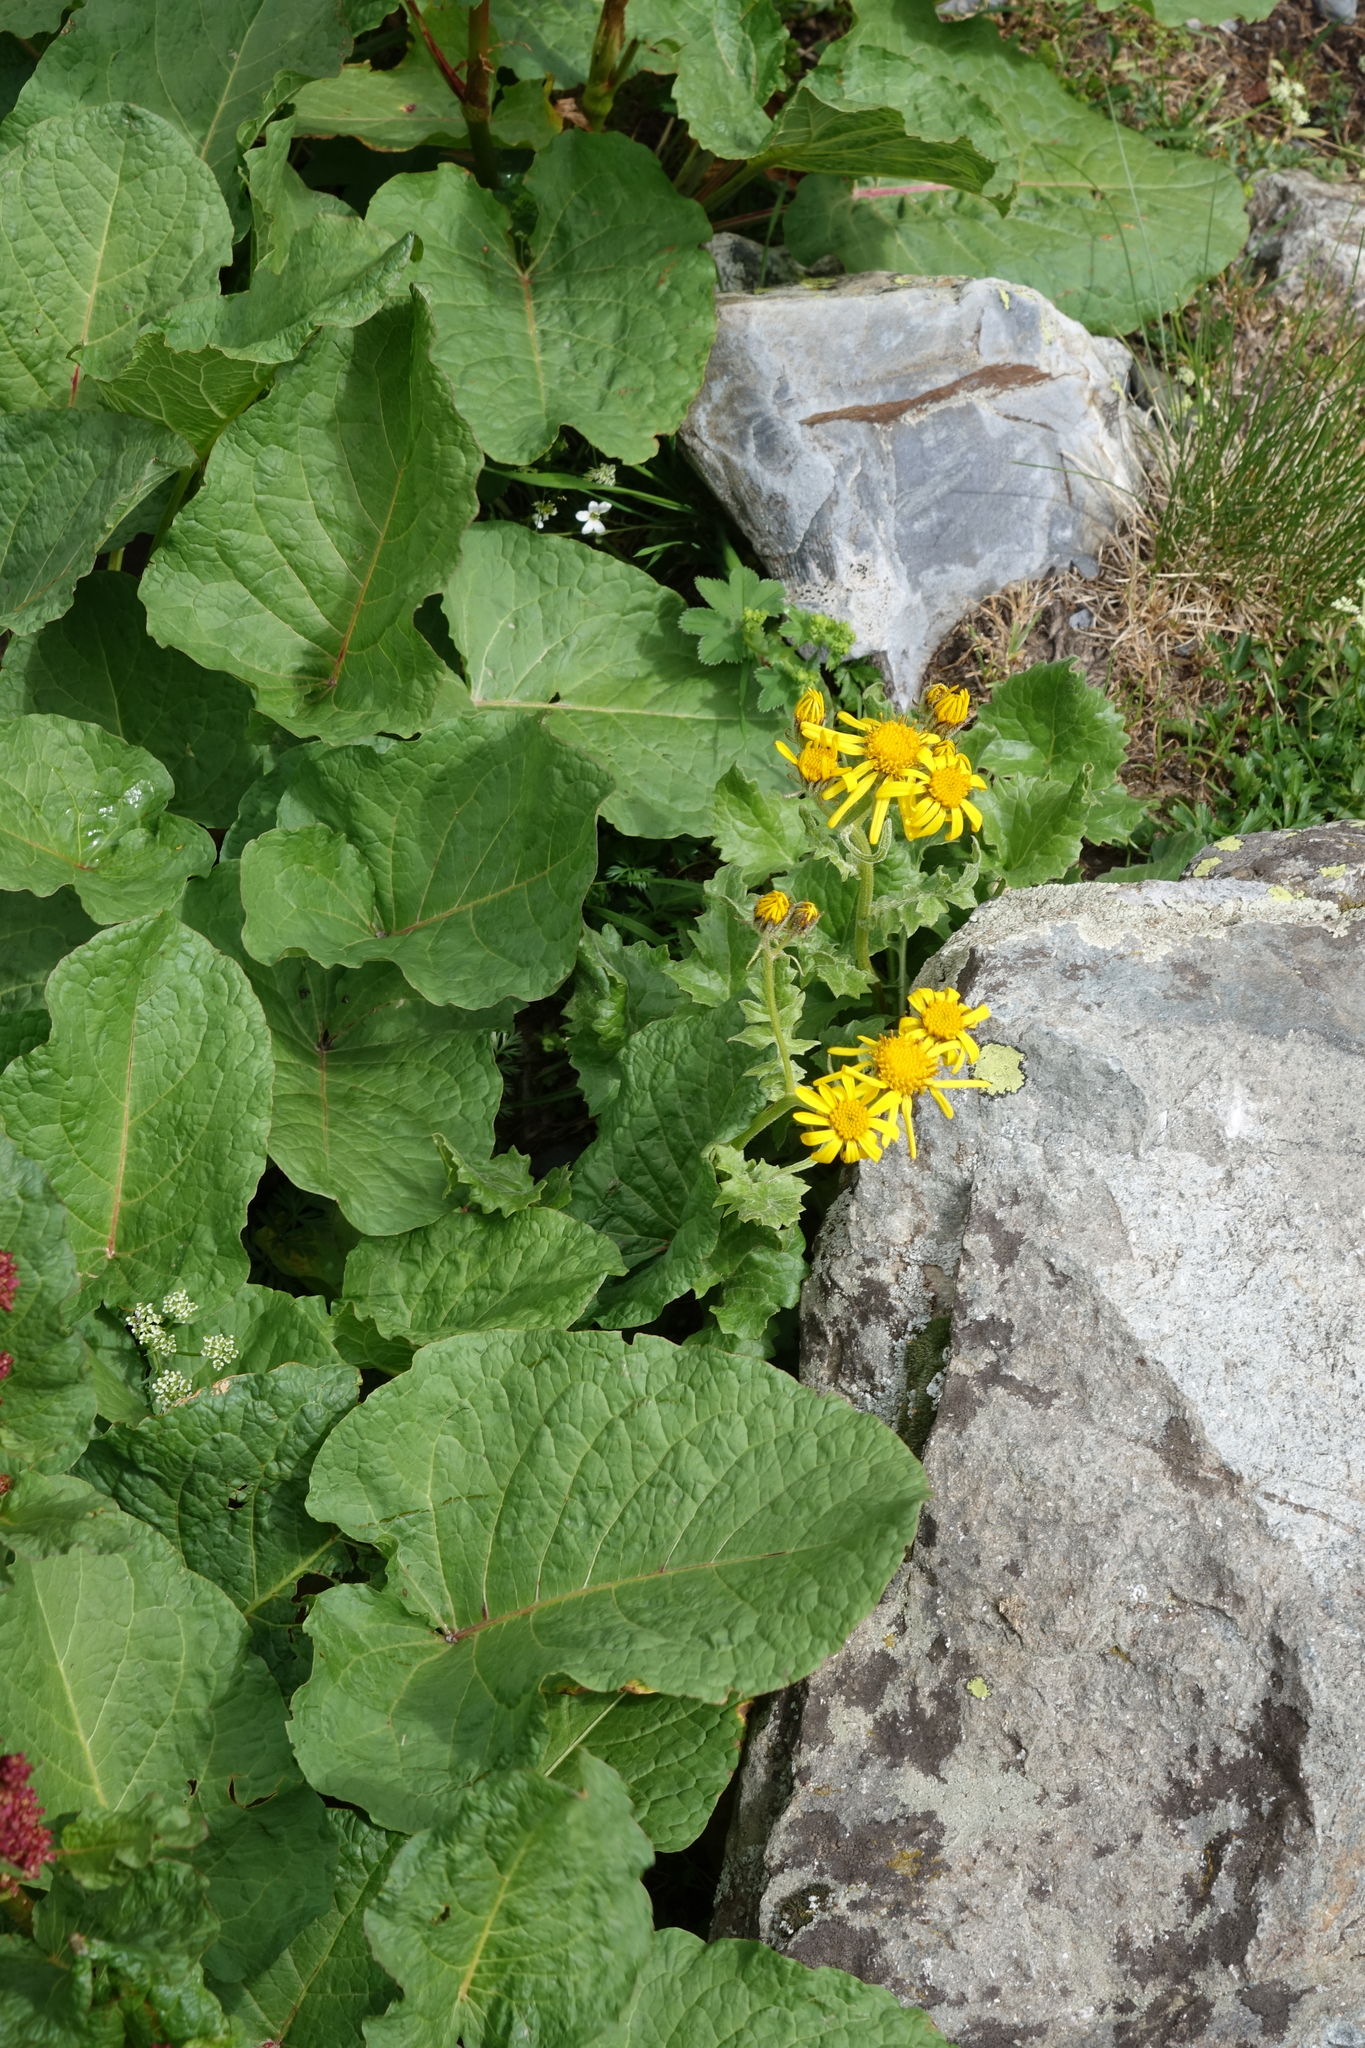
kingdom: Plantae
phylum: Tracheophyta
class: Magnoliopsida
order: Asterales
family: Asteraceae
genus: Turanecio
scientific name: Turanecio taraxacifolius
